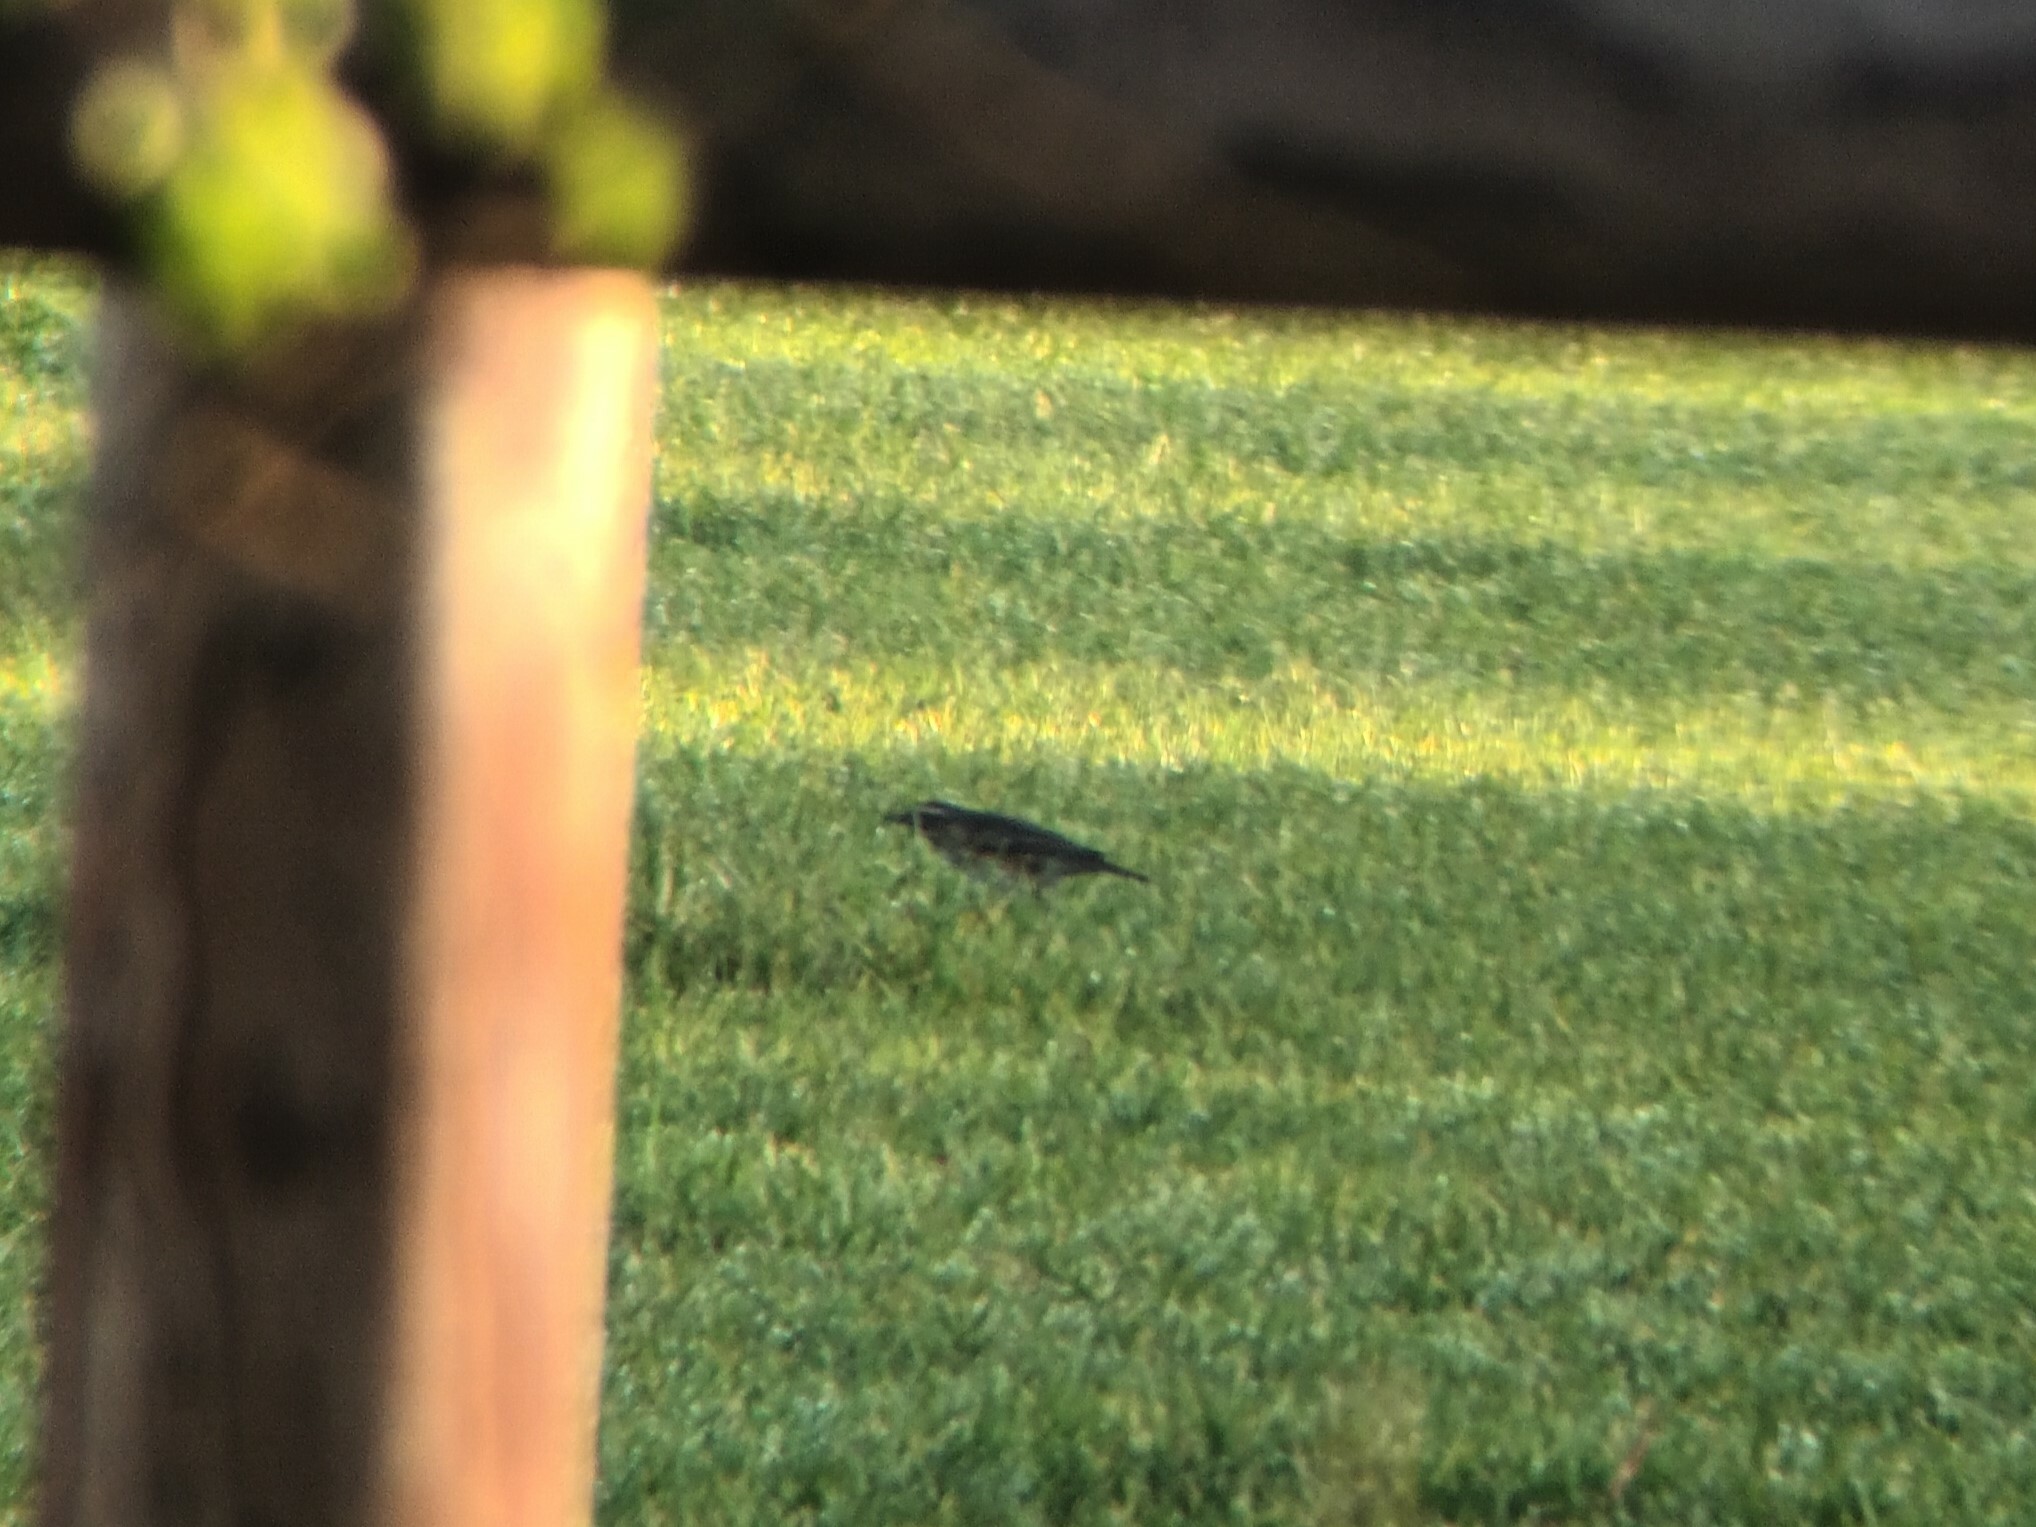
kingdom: Animalia
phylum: Chordata
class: Aves
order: Passeriformes
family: Turdidae
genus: Turdus
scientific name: Turdus iliacus
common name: Redwing
